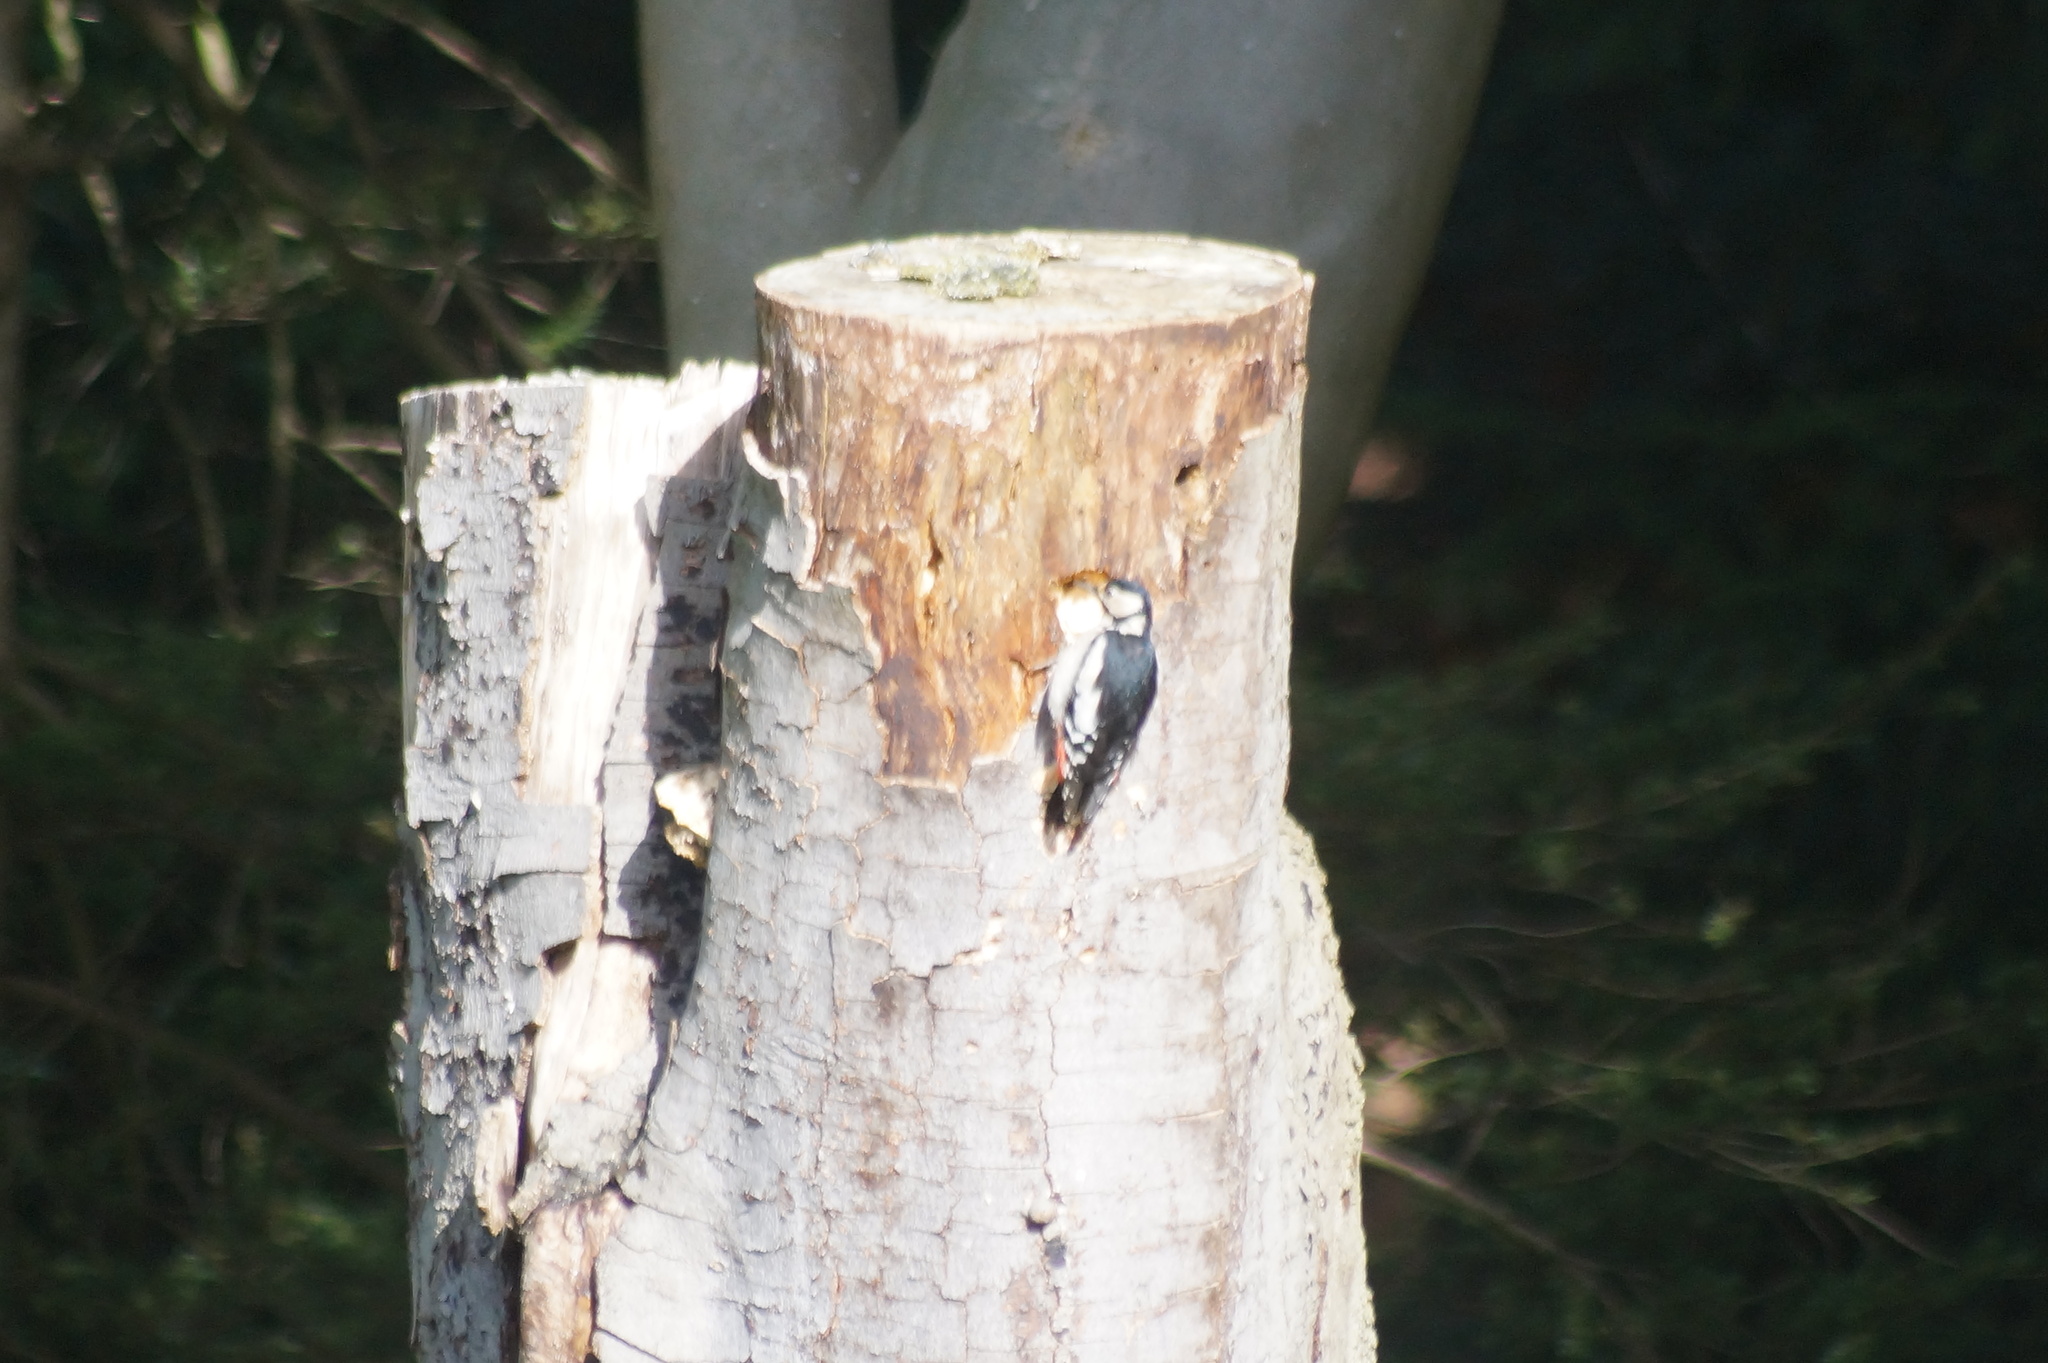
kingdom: Animalia
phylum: Chordata
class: Aves
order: Piciformes
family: Picidae
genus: Dendrocopos
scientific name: Dendrocopos major
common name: Great spotted woodpecker
